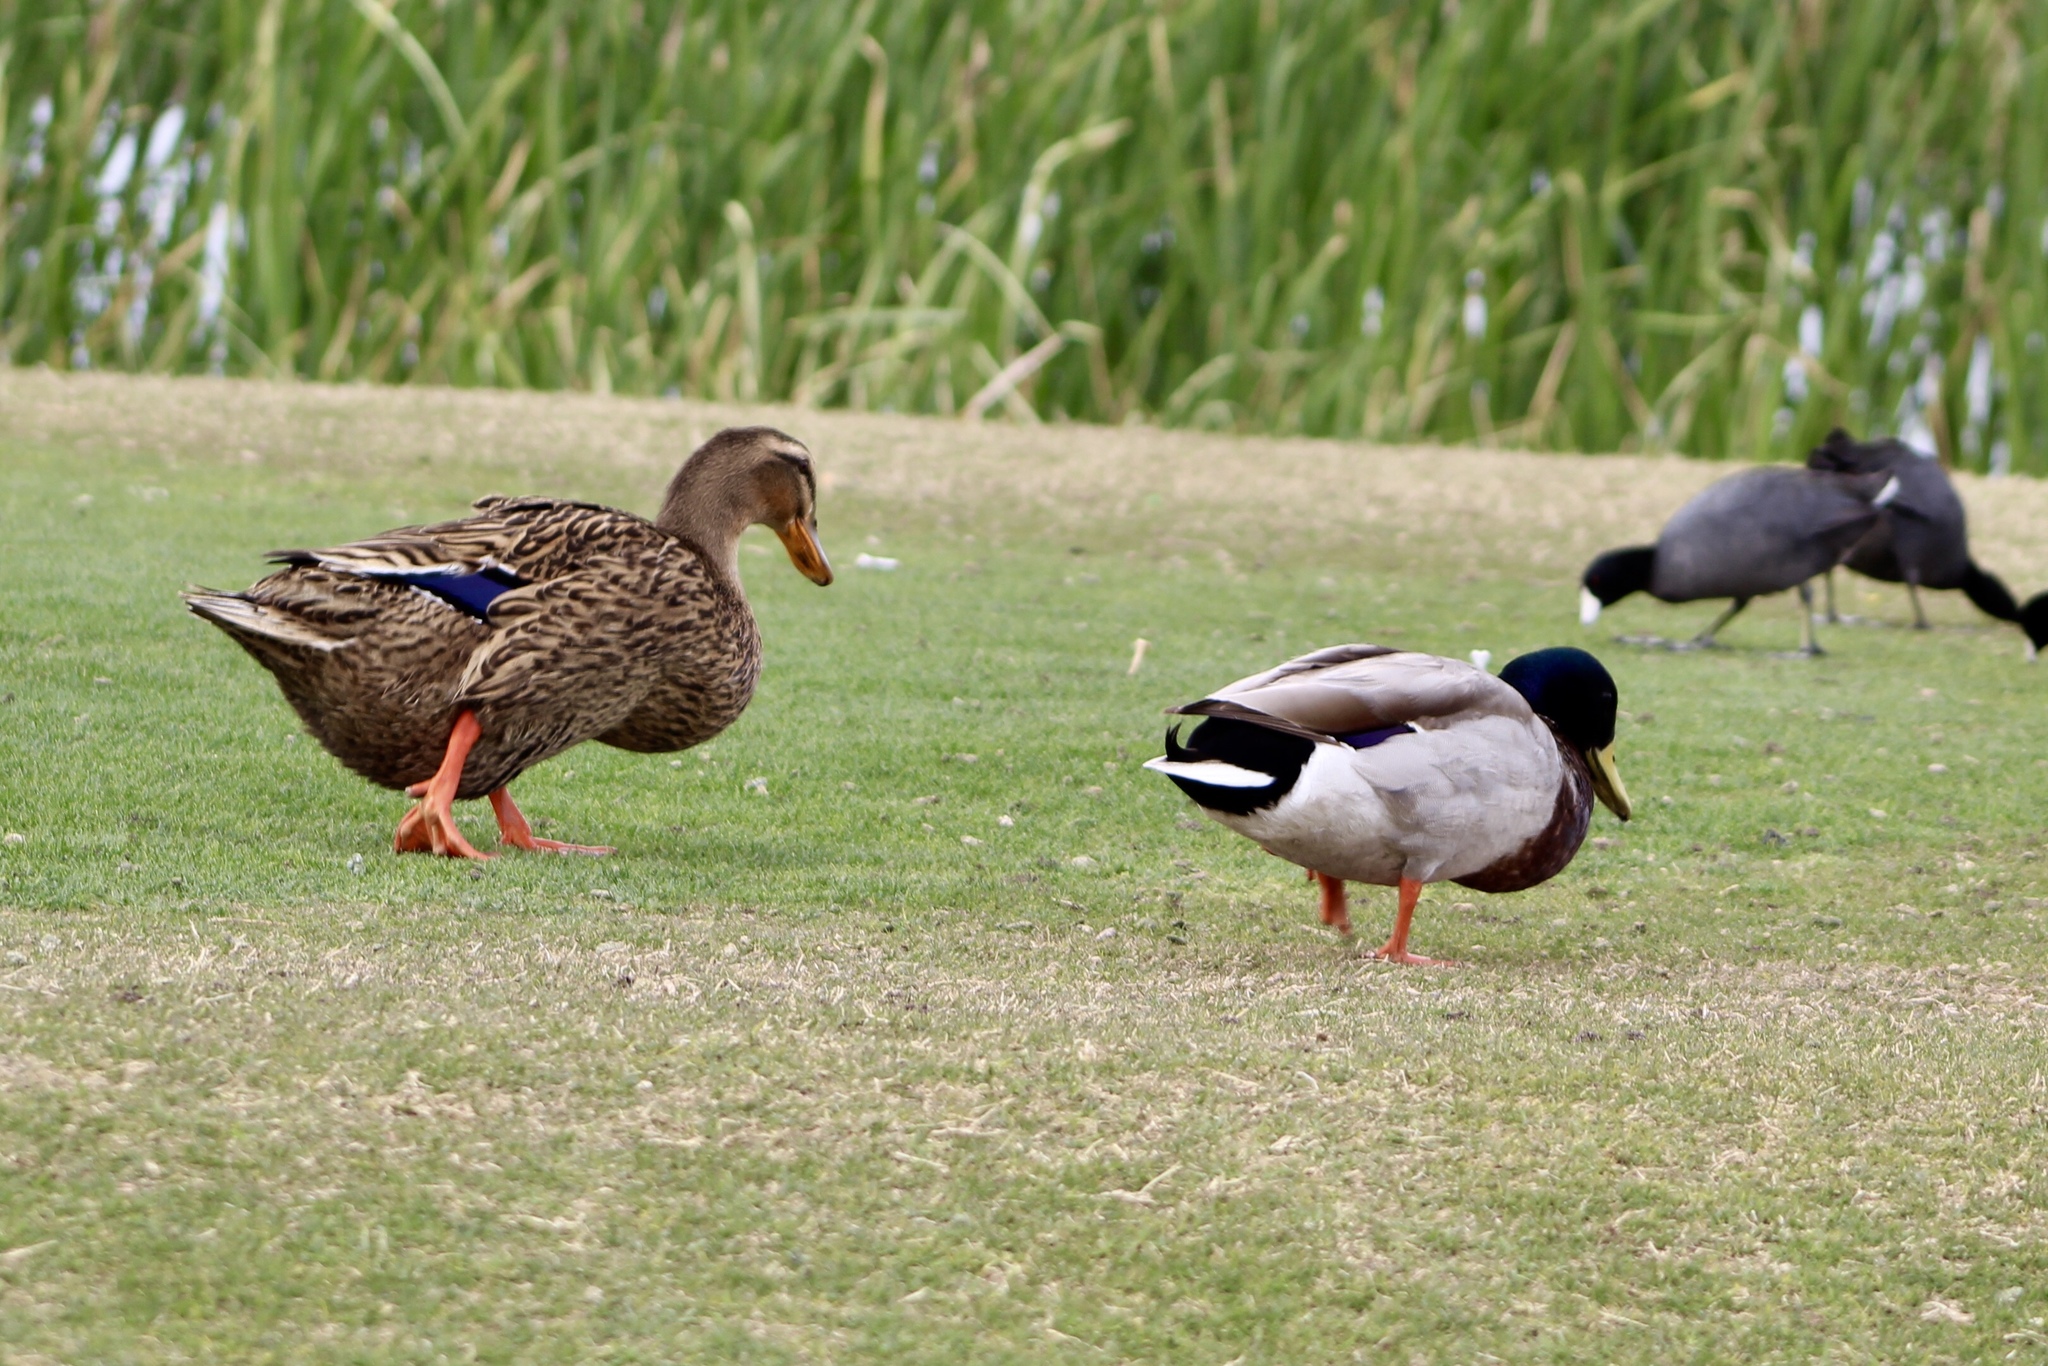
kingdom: Animalia
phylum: Chordata
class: Aves
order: Anseriformes
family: Anatidae
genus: Anas
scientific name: Anas platyrhynchos
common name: Mallard
